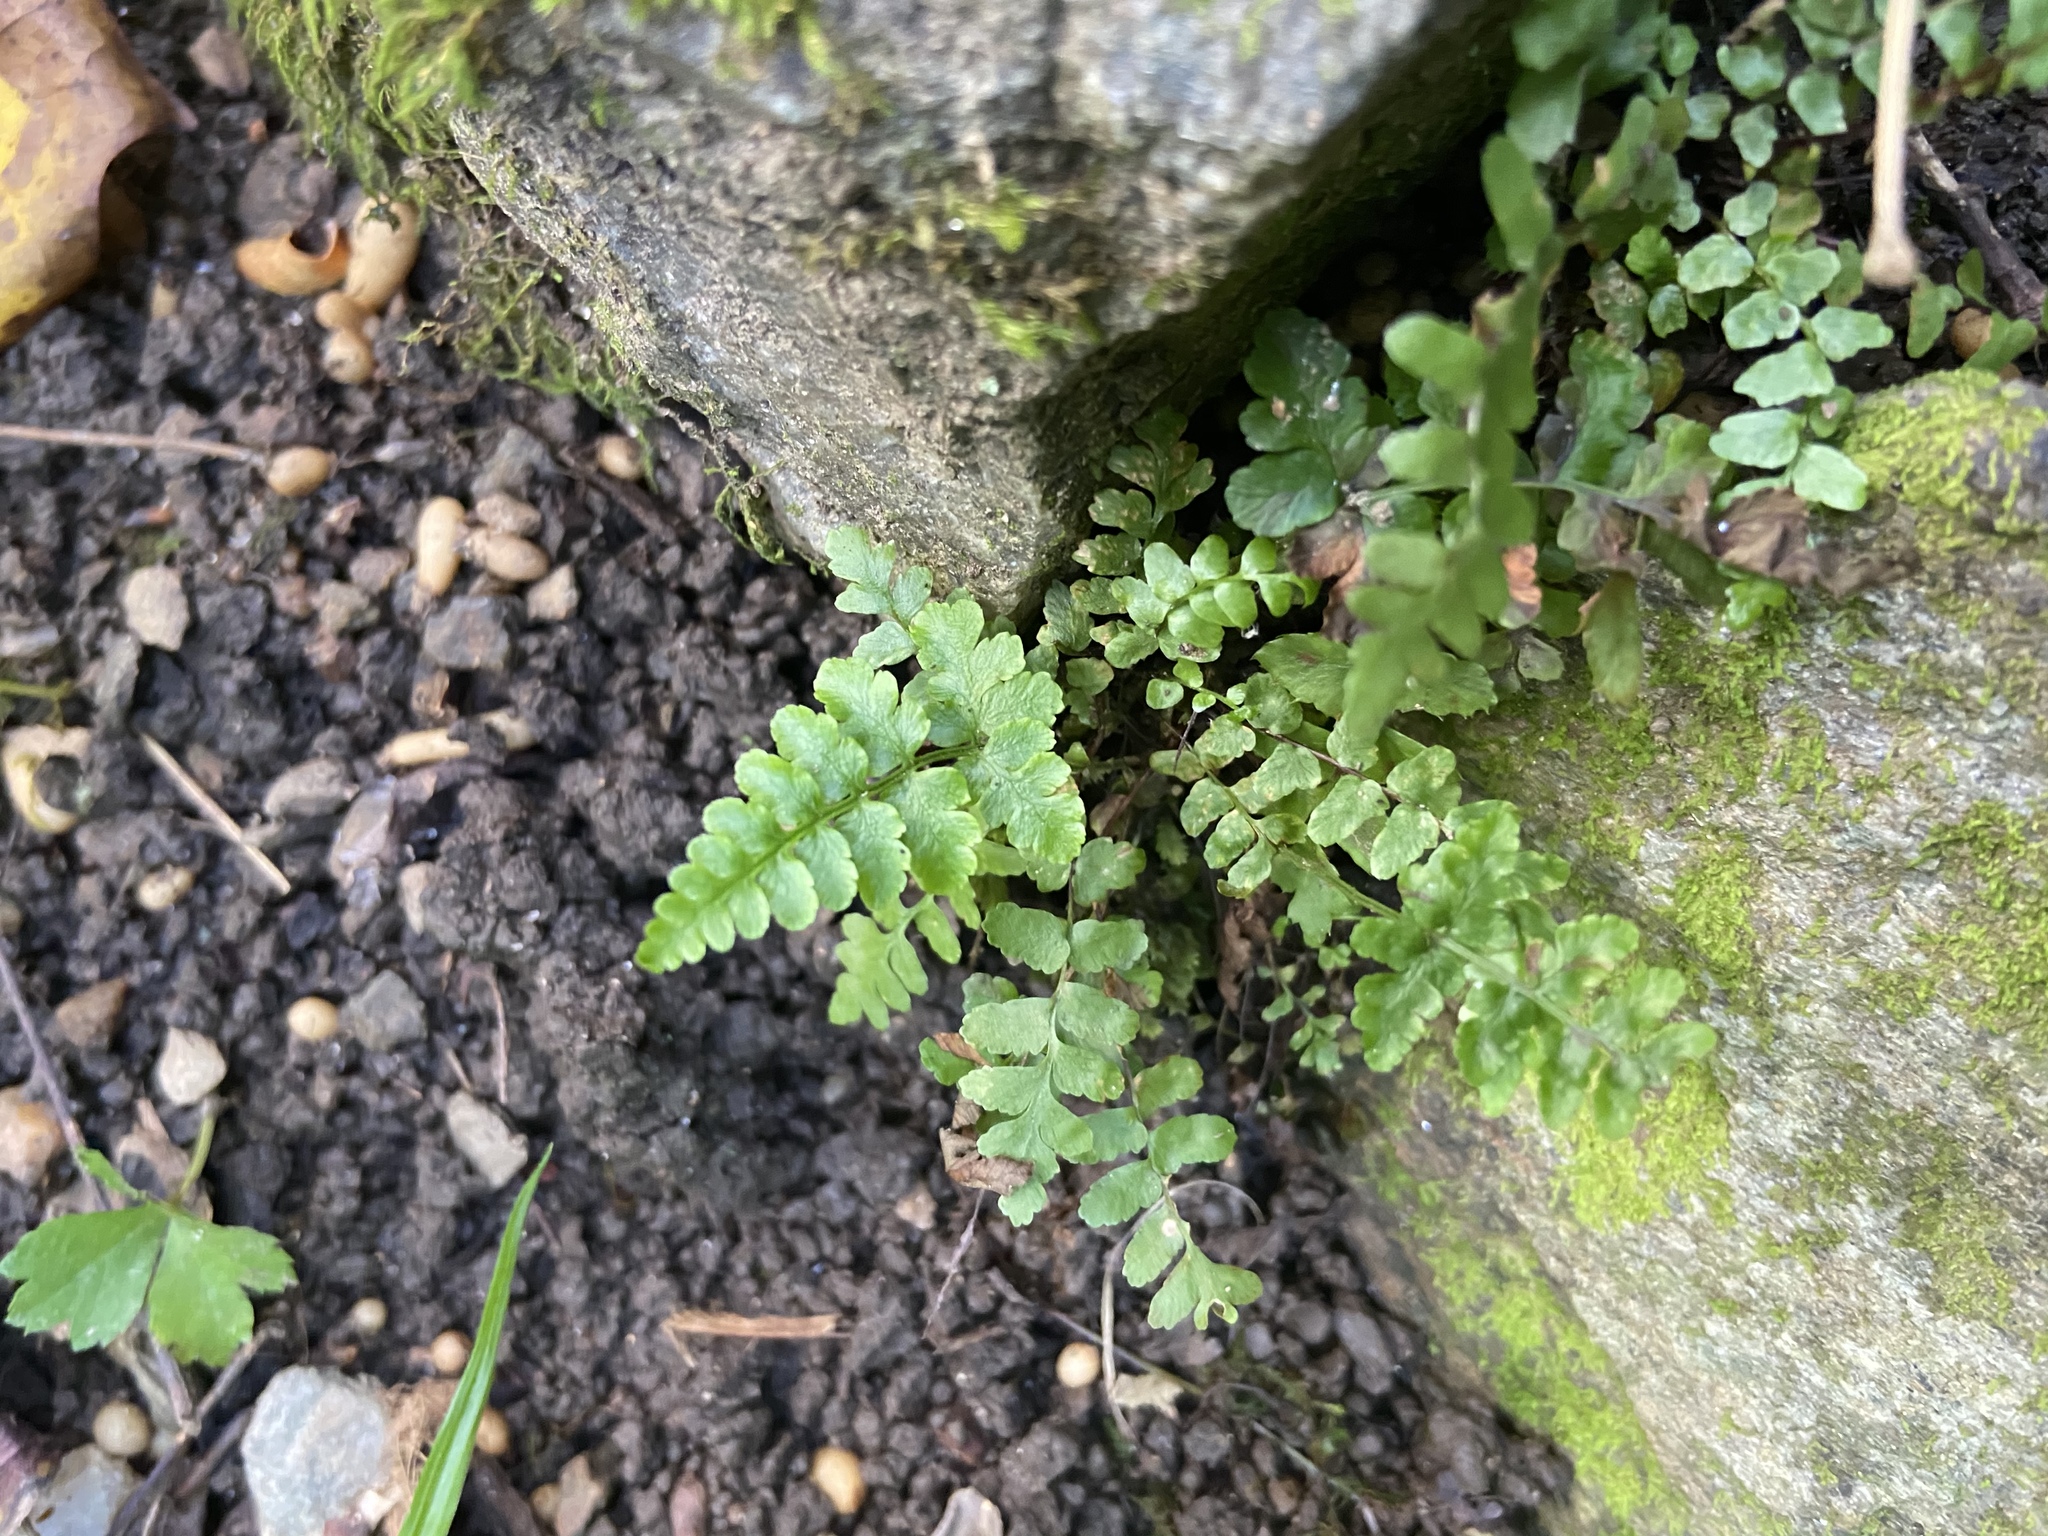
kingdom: Plantae
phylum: Tracheophyta
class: Polypodiopsida
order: Polypodiales
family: Aspleniaceae
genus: Asplenium
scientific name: Asplenium platyneuron
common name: Ebony spleenwort
